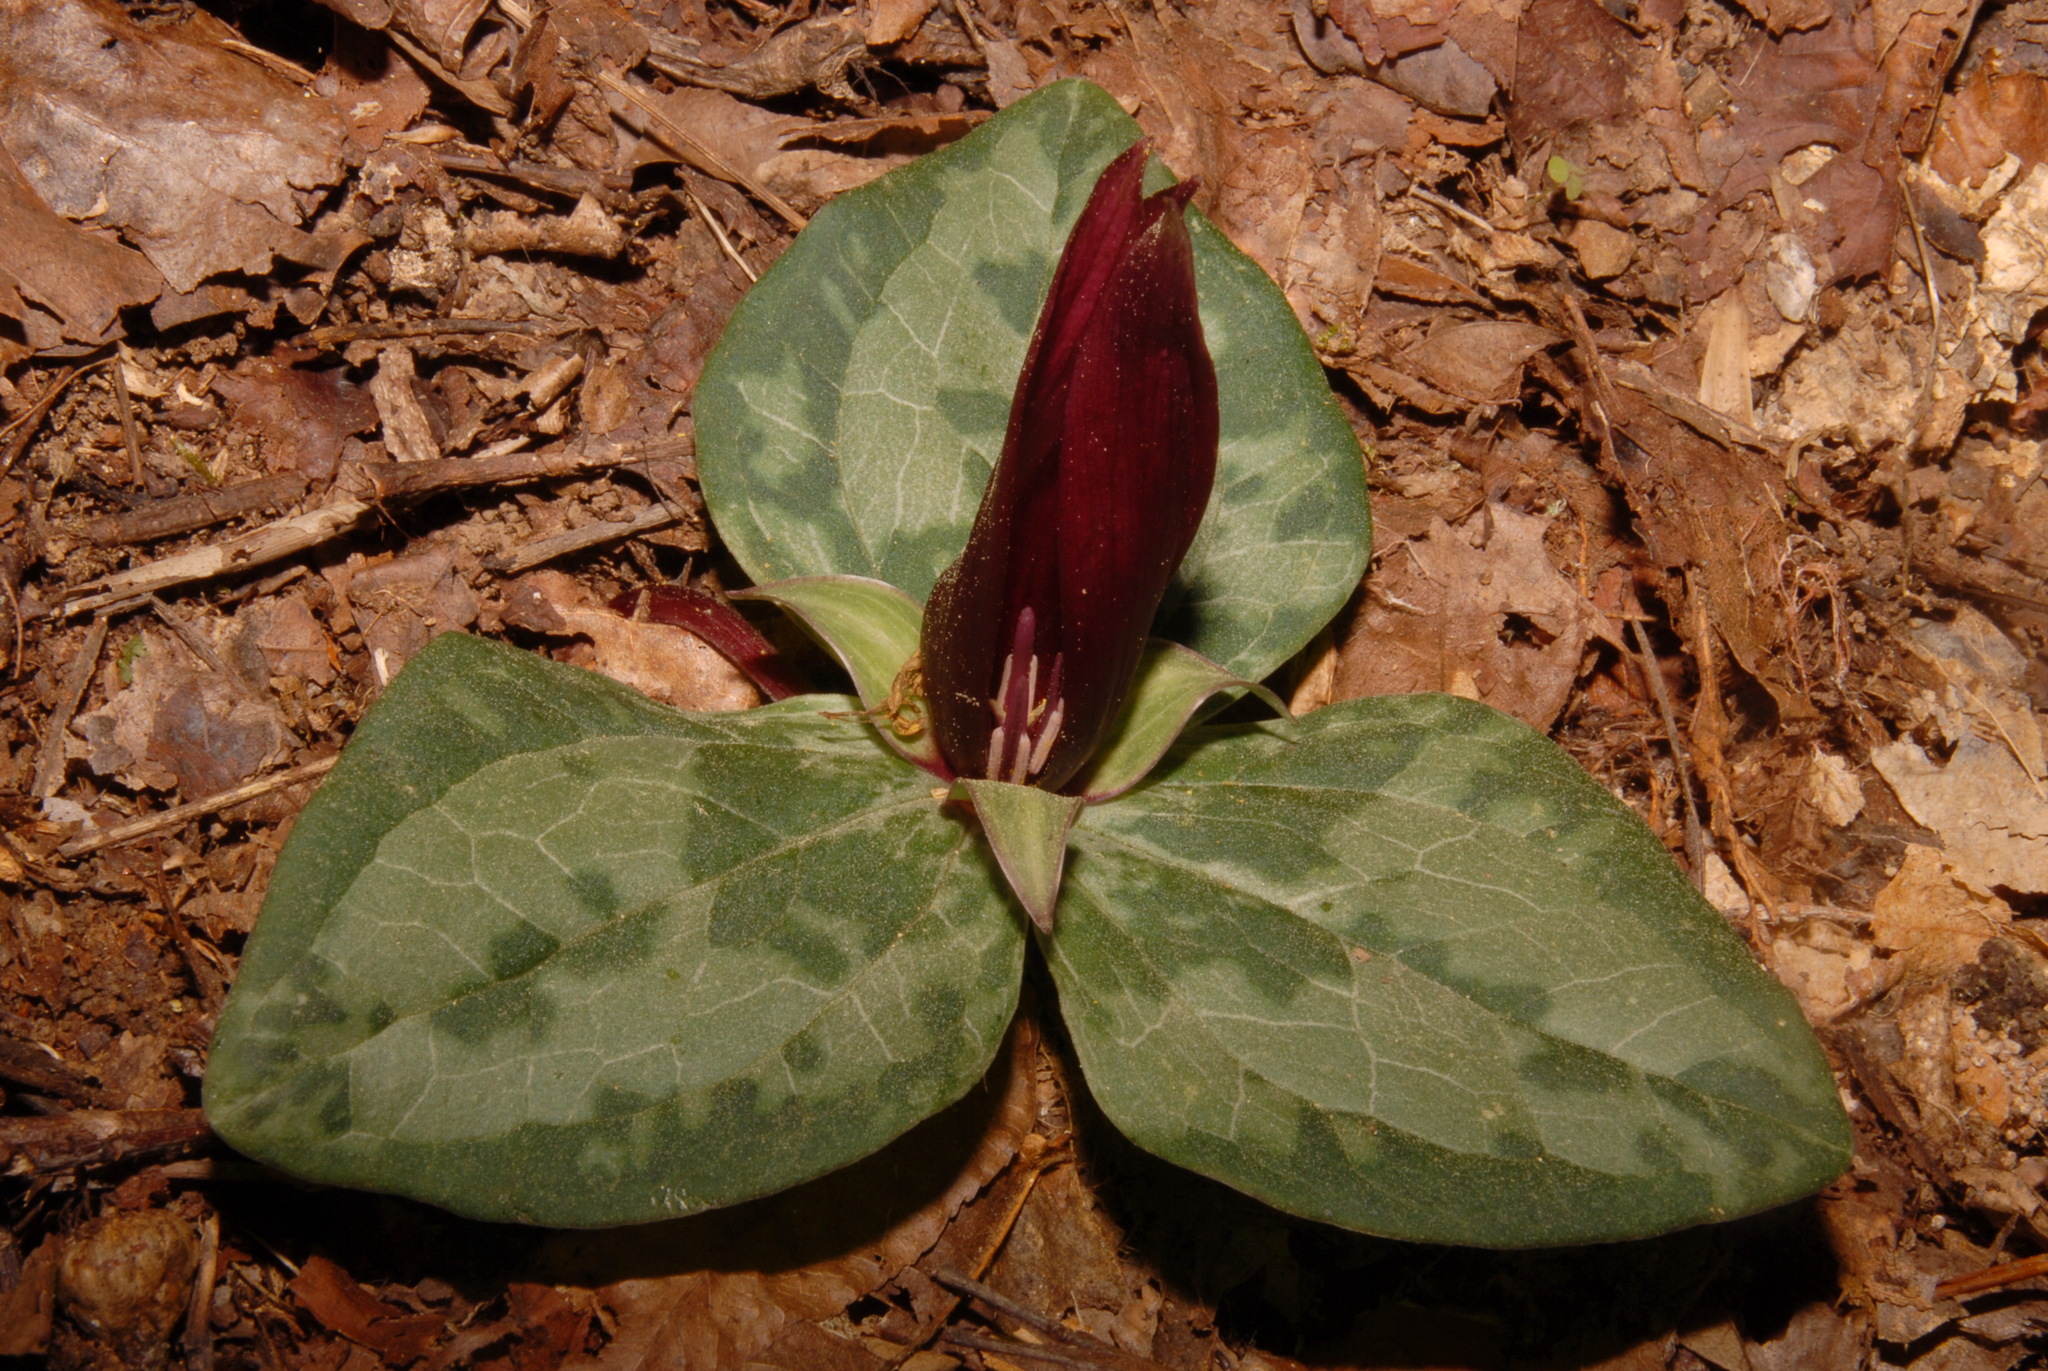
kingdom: Plantae
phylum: Tracheophyta
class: Liliopsida
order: Liliales
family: Melanthiaceae
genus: Trillium
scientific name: Trillium decumbens
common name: Decumbent trillium
